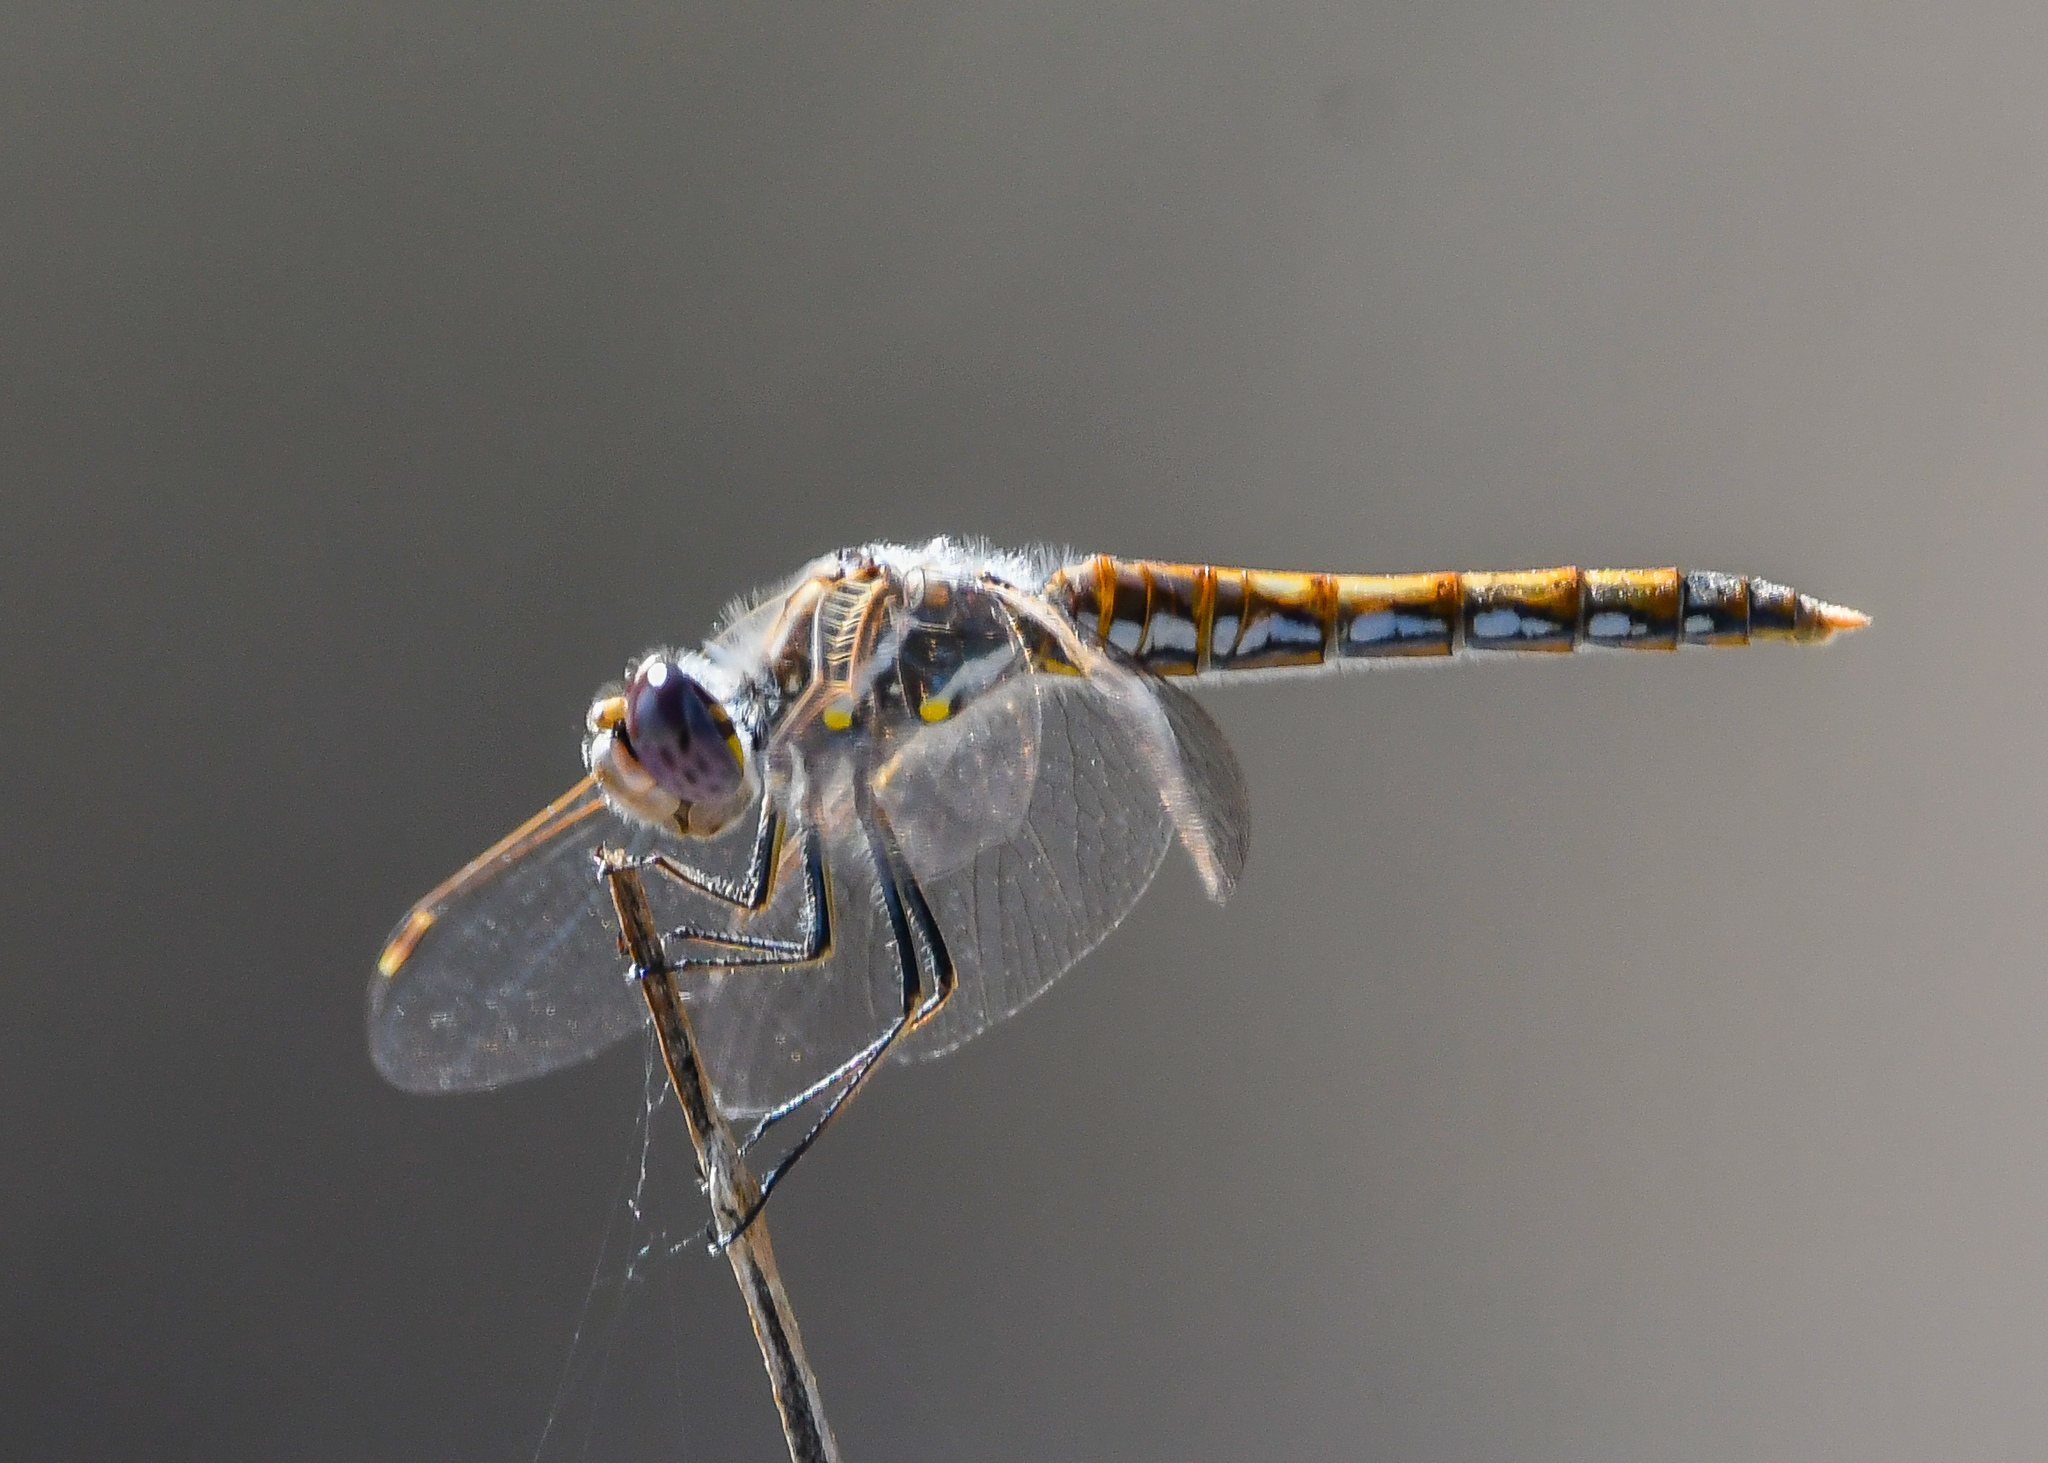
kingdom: Animalia
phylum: Arthropoda
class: Insecta
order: Odonata
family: Libellulidae
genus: Sympetrum
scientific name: Sympetrum corruptum
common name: Variegated meadowhawk
